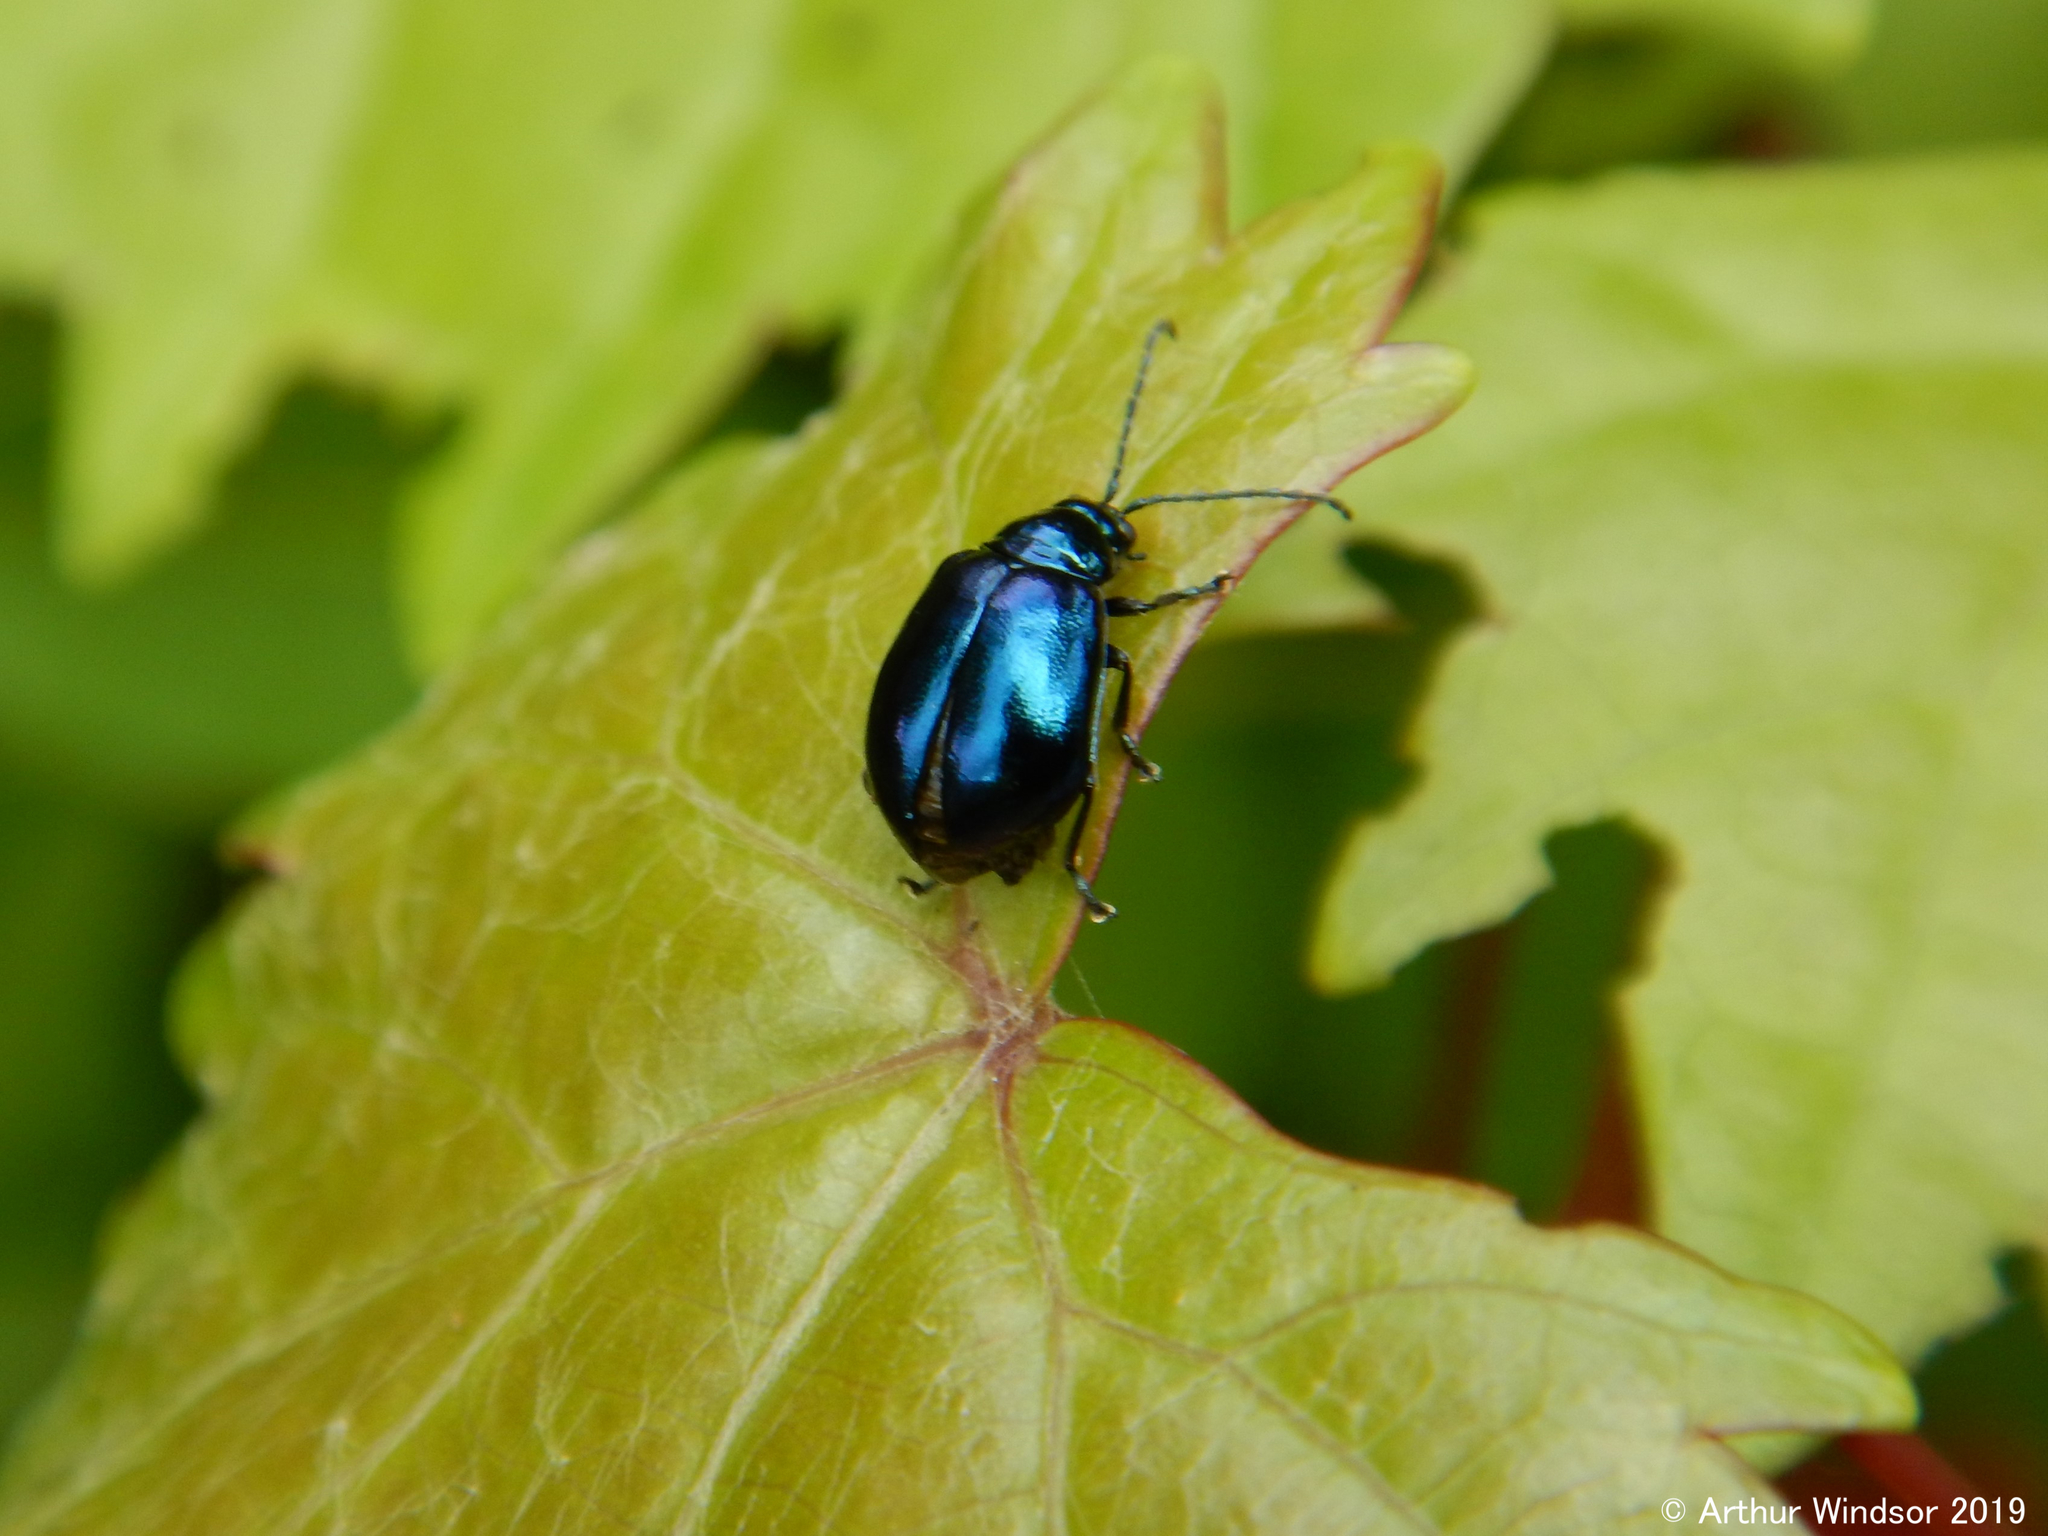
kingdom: Animalia
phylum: Arthropoda
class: Insecta
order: Coleoptera
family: Chrysomelidae
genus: Altica
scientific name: Altica chalybea
